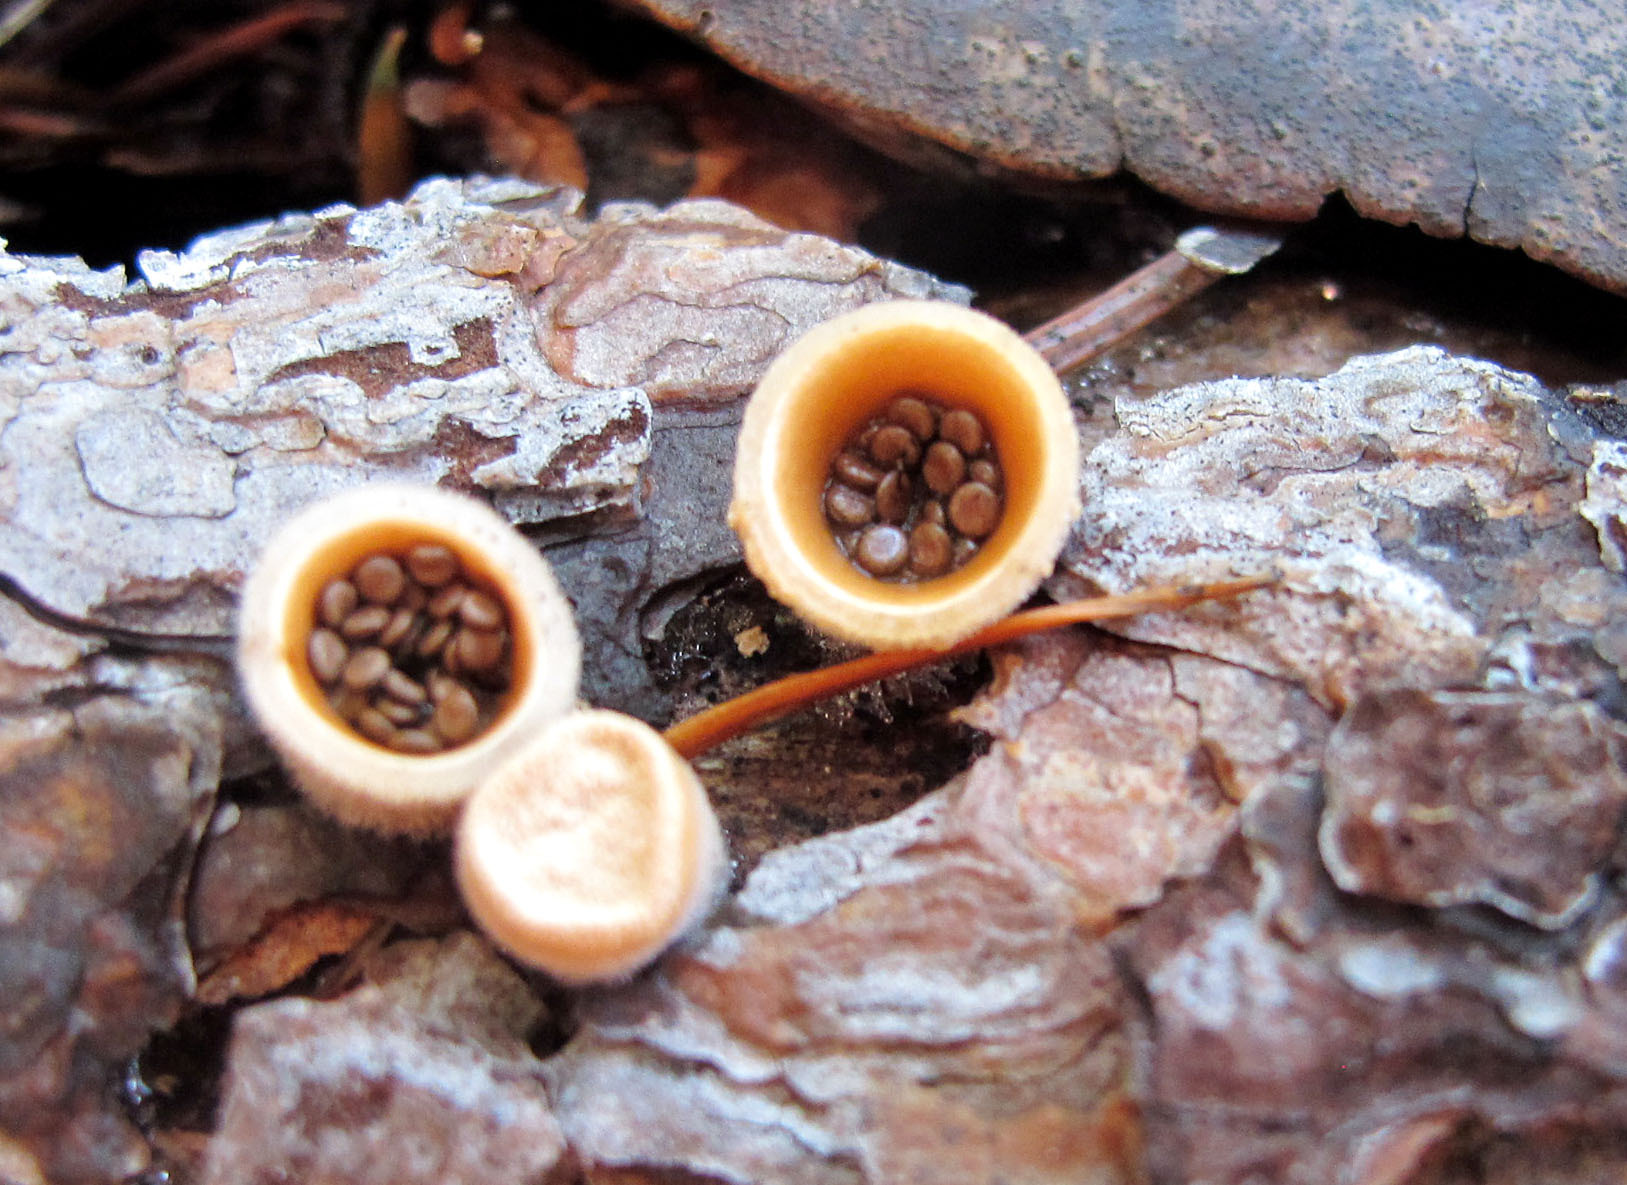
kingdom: Fungi
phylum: Basidiomycota
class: Agaricomycetes
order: Agaricales
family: Agaricaceae
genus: Nidula
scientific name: Nidula niveotomentosa
